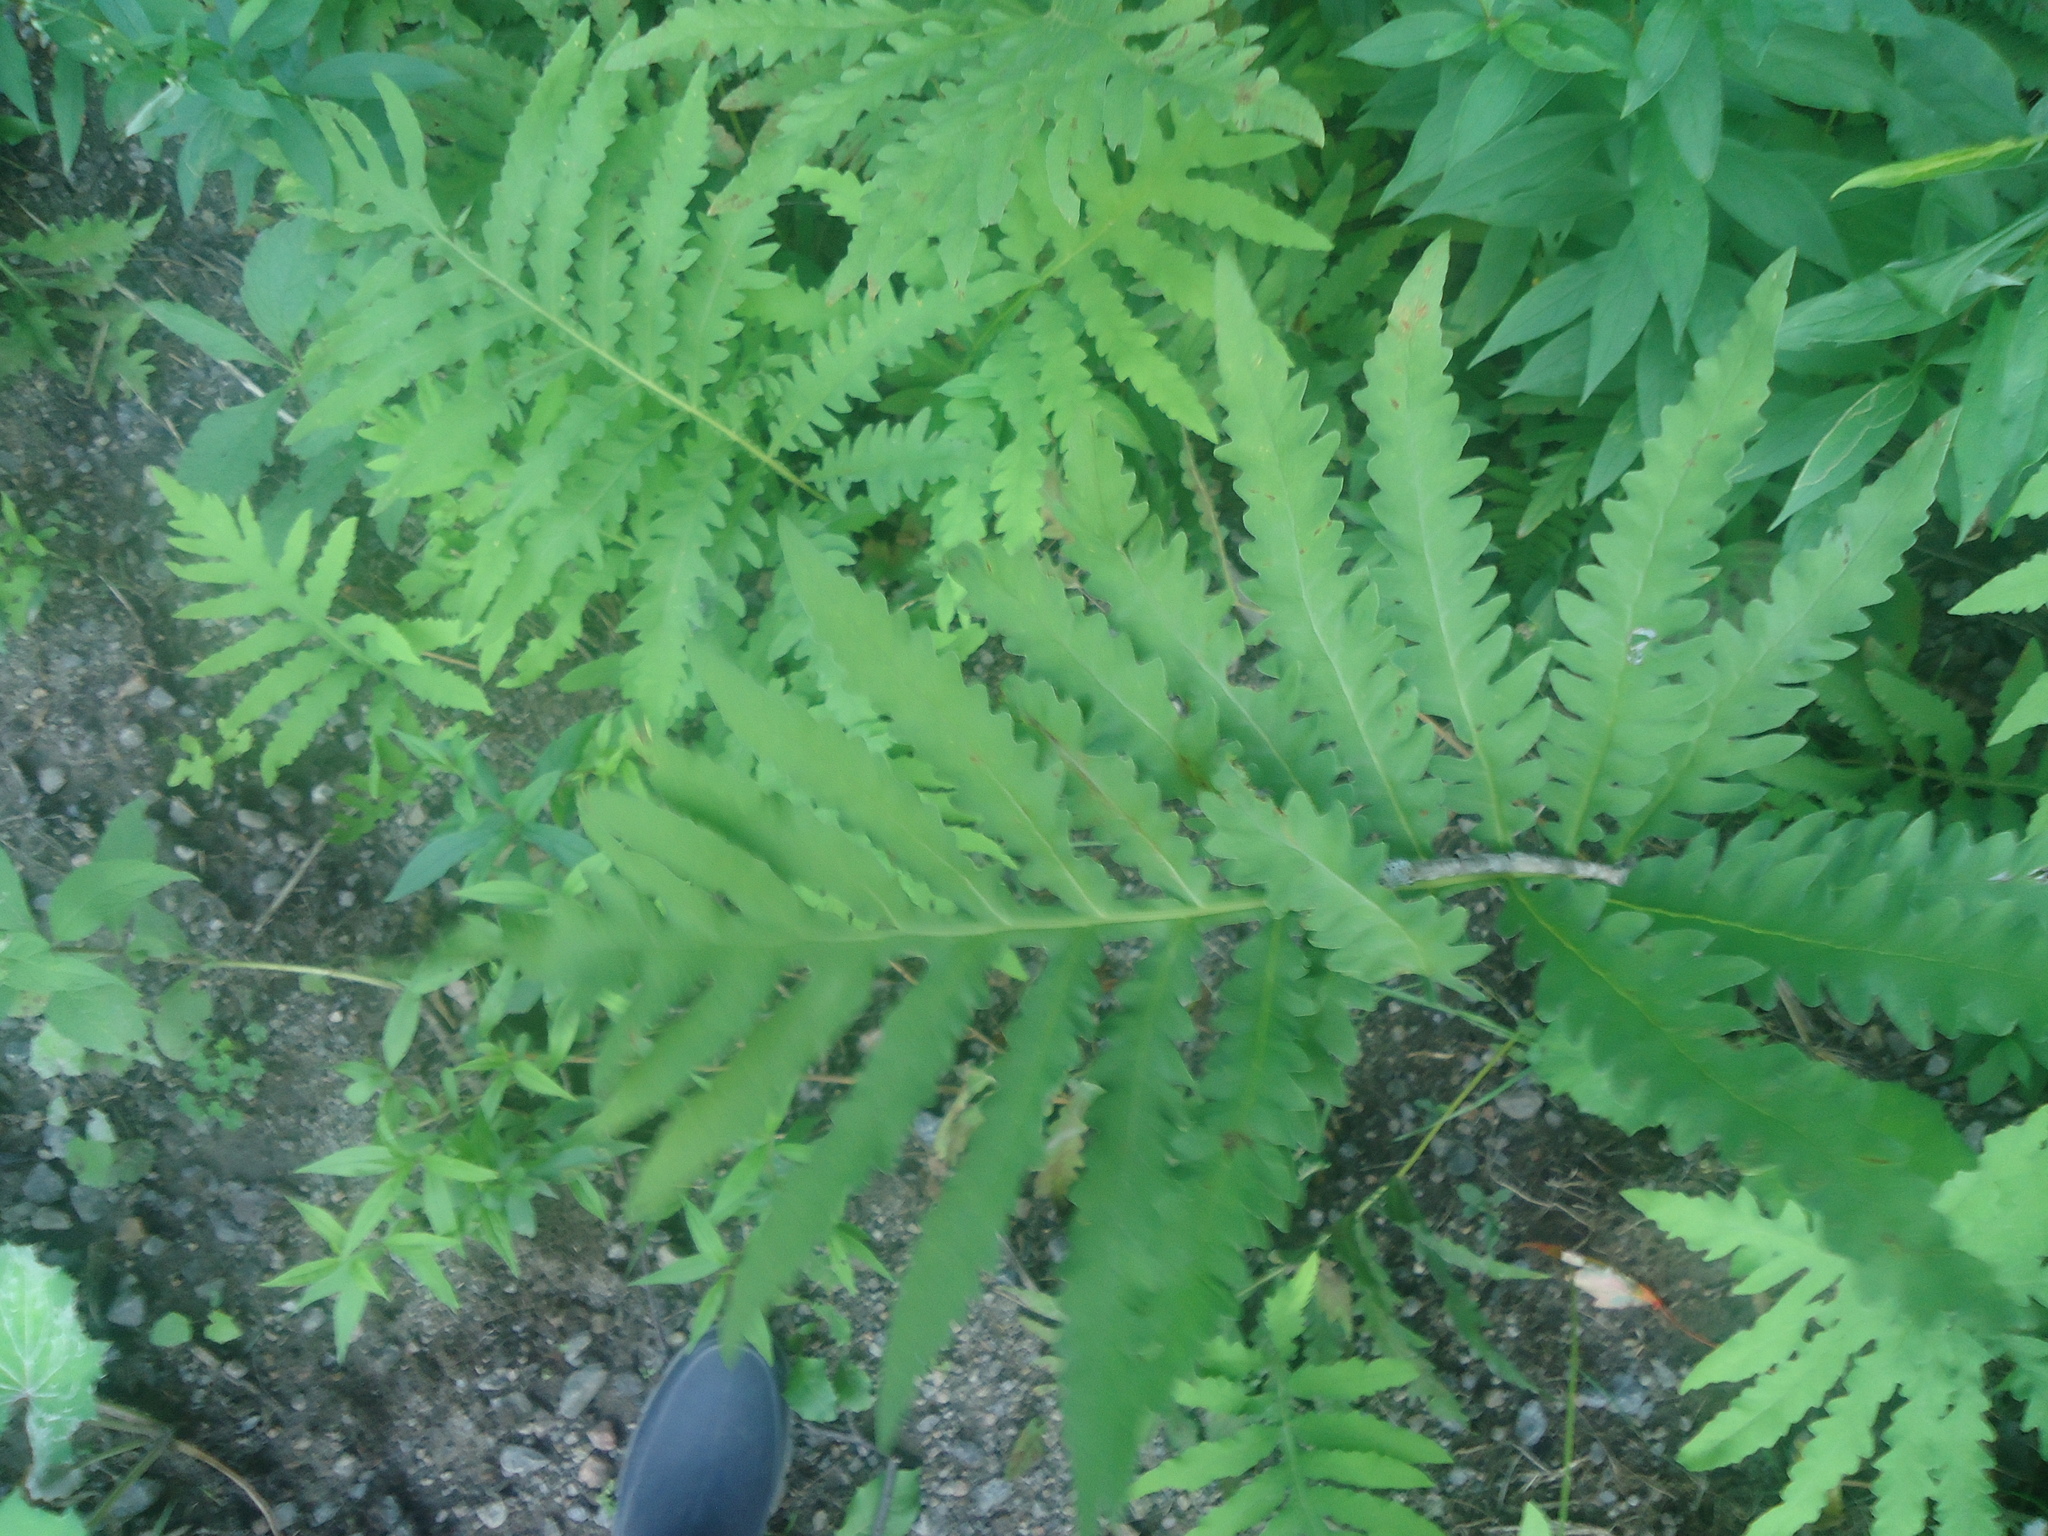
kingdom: Plantae
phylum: Tracheophyta
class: Polypodiopsida
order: Polypodiales
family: Onocleaceae
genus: Onoclea
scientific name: Onoclea sensibilis
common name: Sensitive fern
